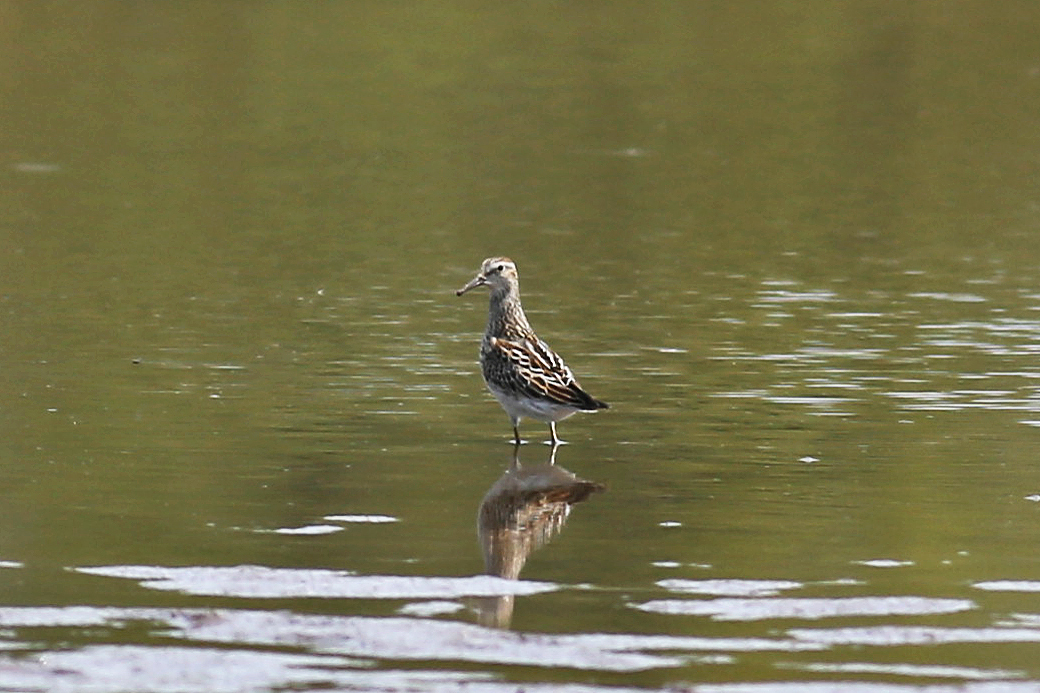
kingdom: Animalia
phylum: Chordata
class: Aves
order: Charadriiformes
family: Scolopacidae
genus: Calidris
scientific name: Calidris melanotos
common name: Pectoral sandpiper
